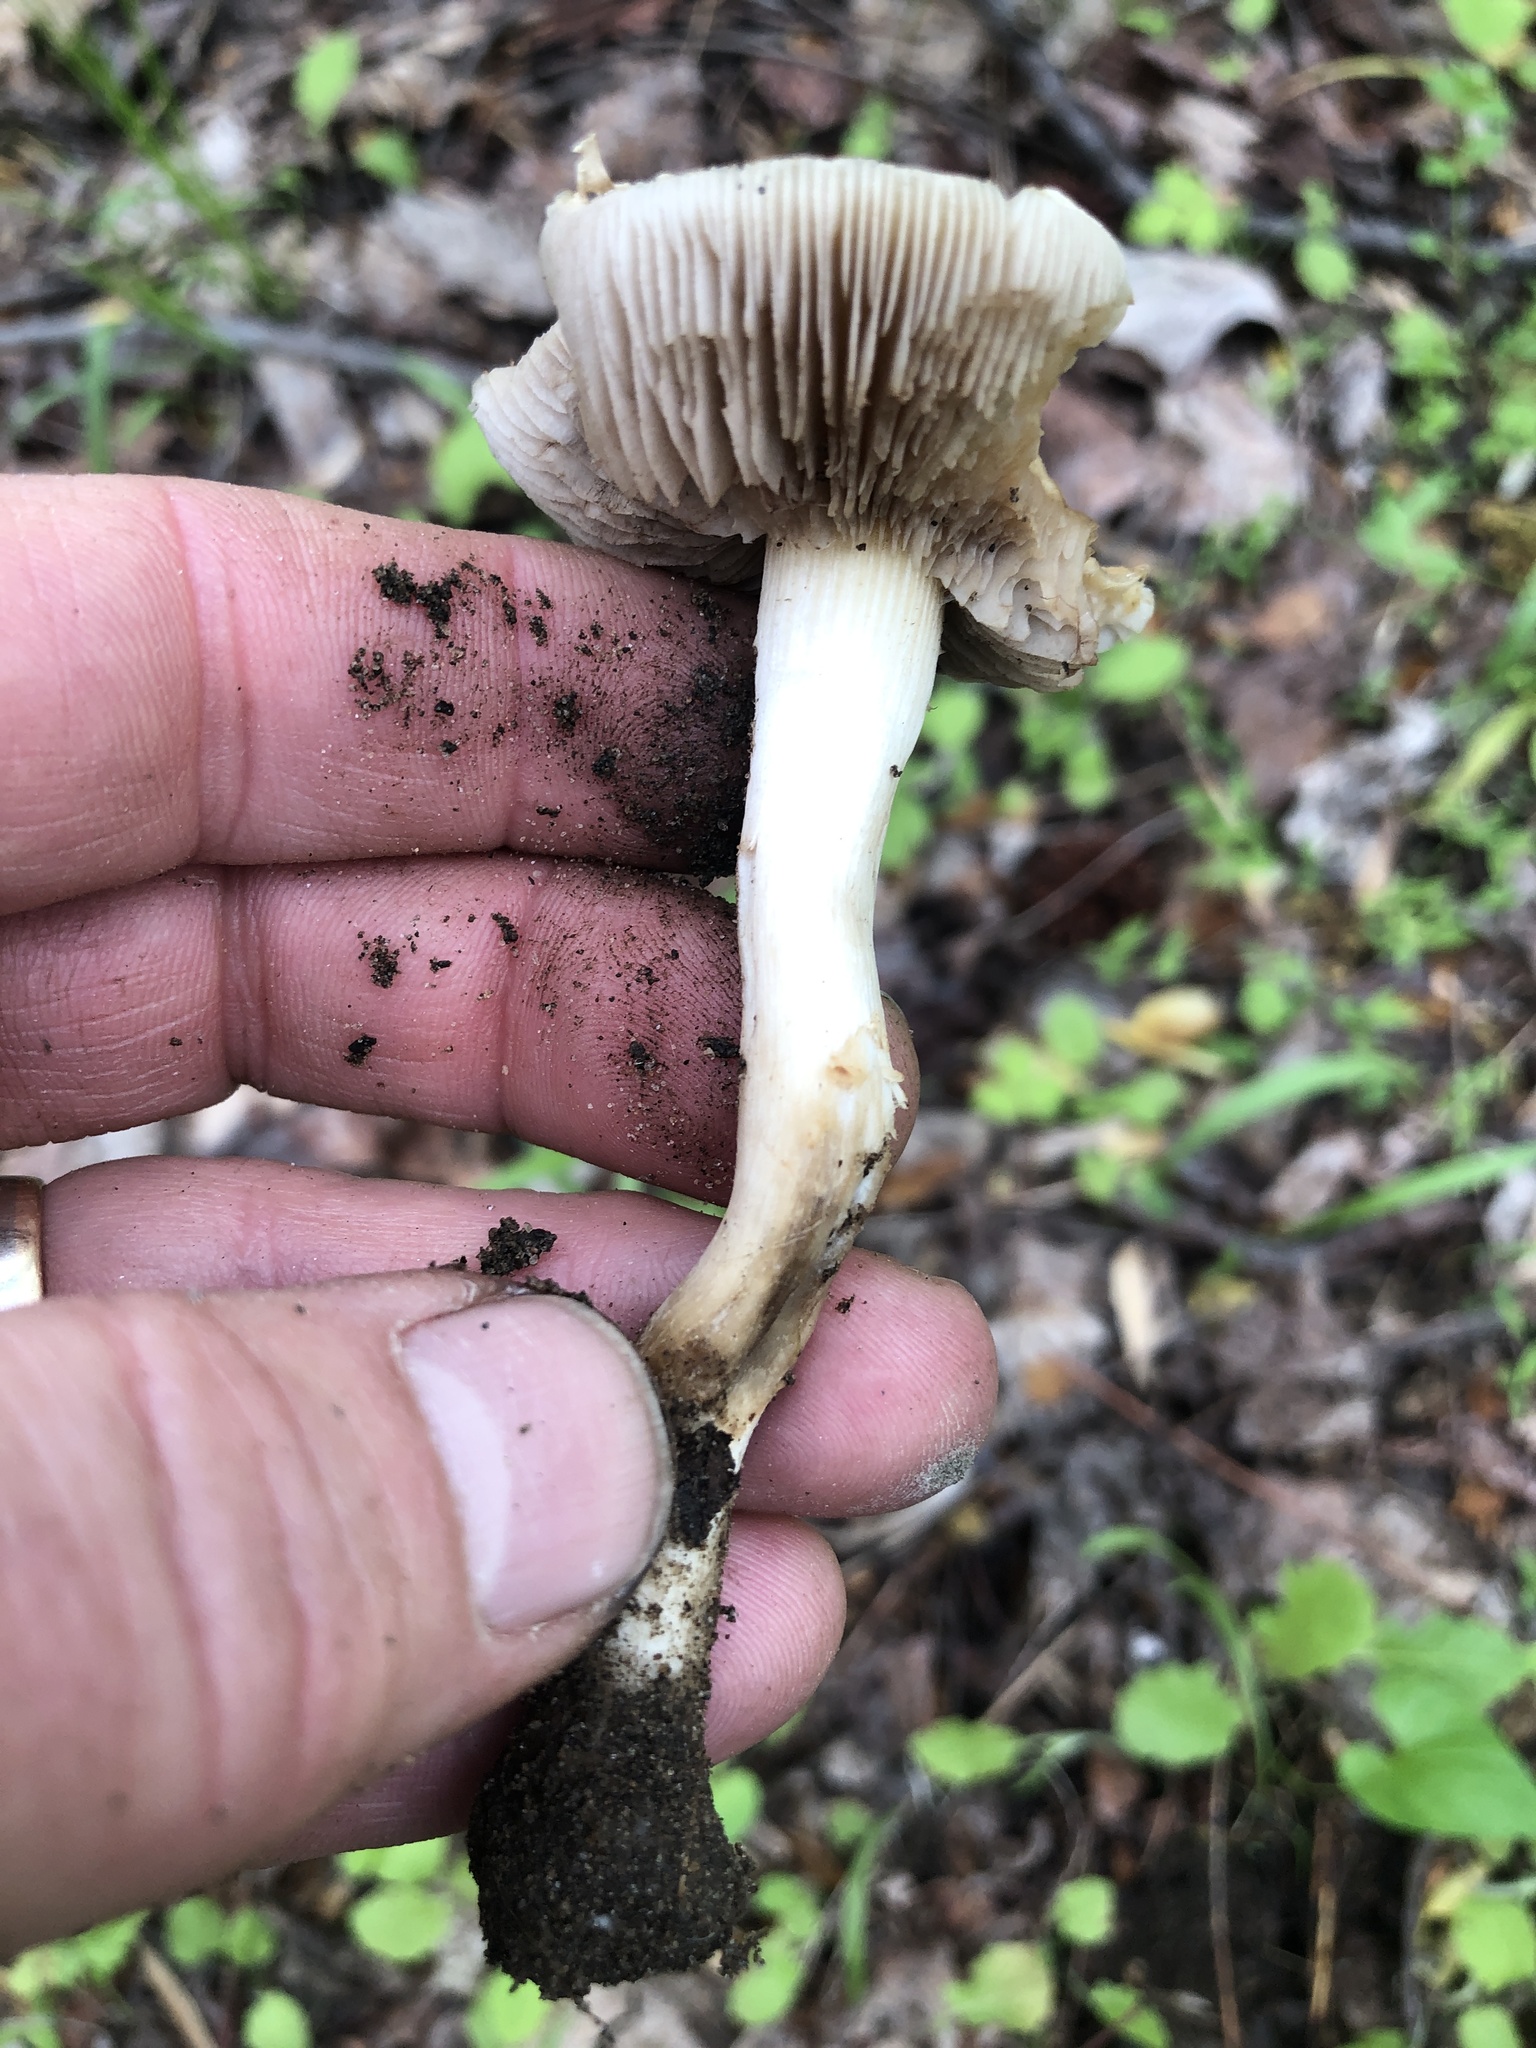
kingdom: Fungi
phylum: Basidiomycota
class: Agaricomycetes
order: Agaricales
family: Strophariaceae
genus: Agrocybe
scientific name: Agrocybe praecox
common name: Spring fieldcap
